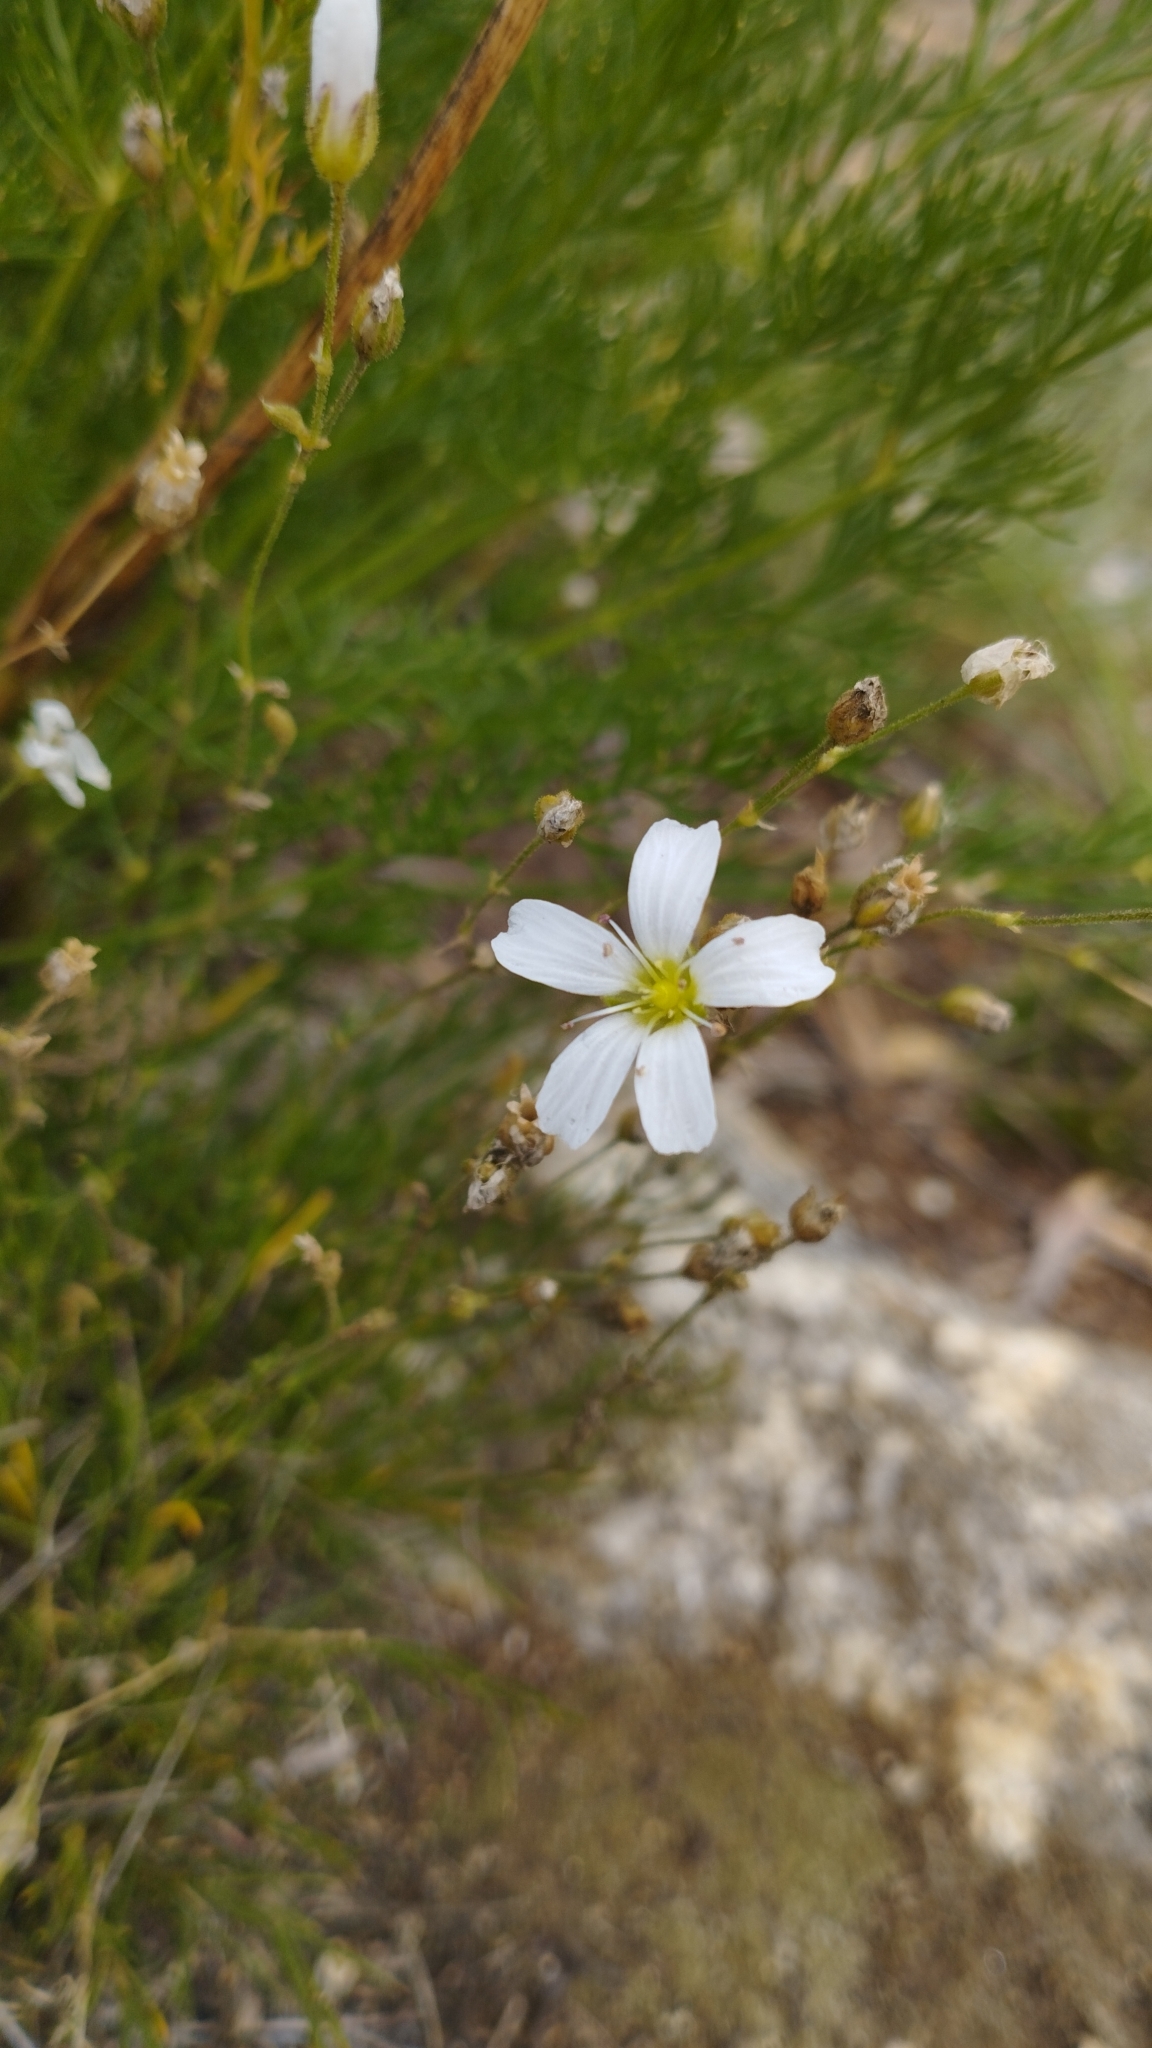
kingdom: Plantae
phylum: Tracheophyta
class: Magnoliopsida
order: Caryophyllales
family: Caryophyllaceae
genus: Eremogone
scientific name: Eremogone meyeri
